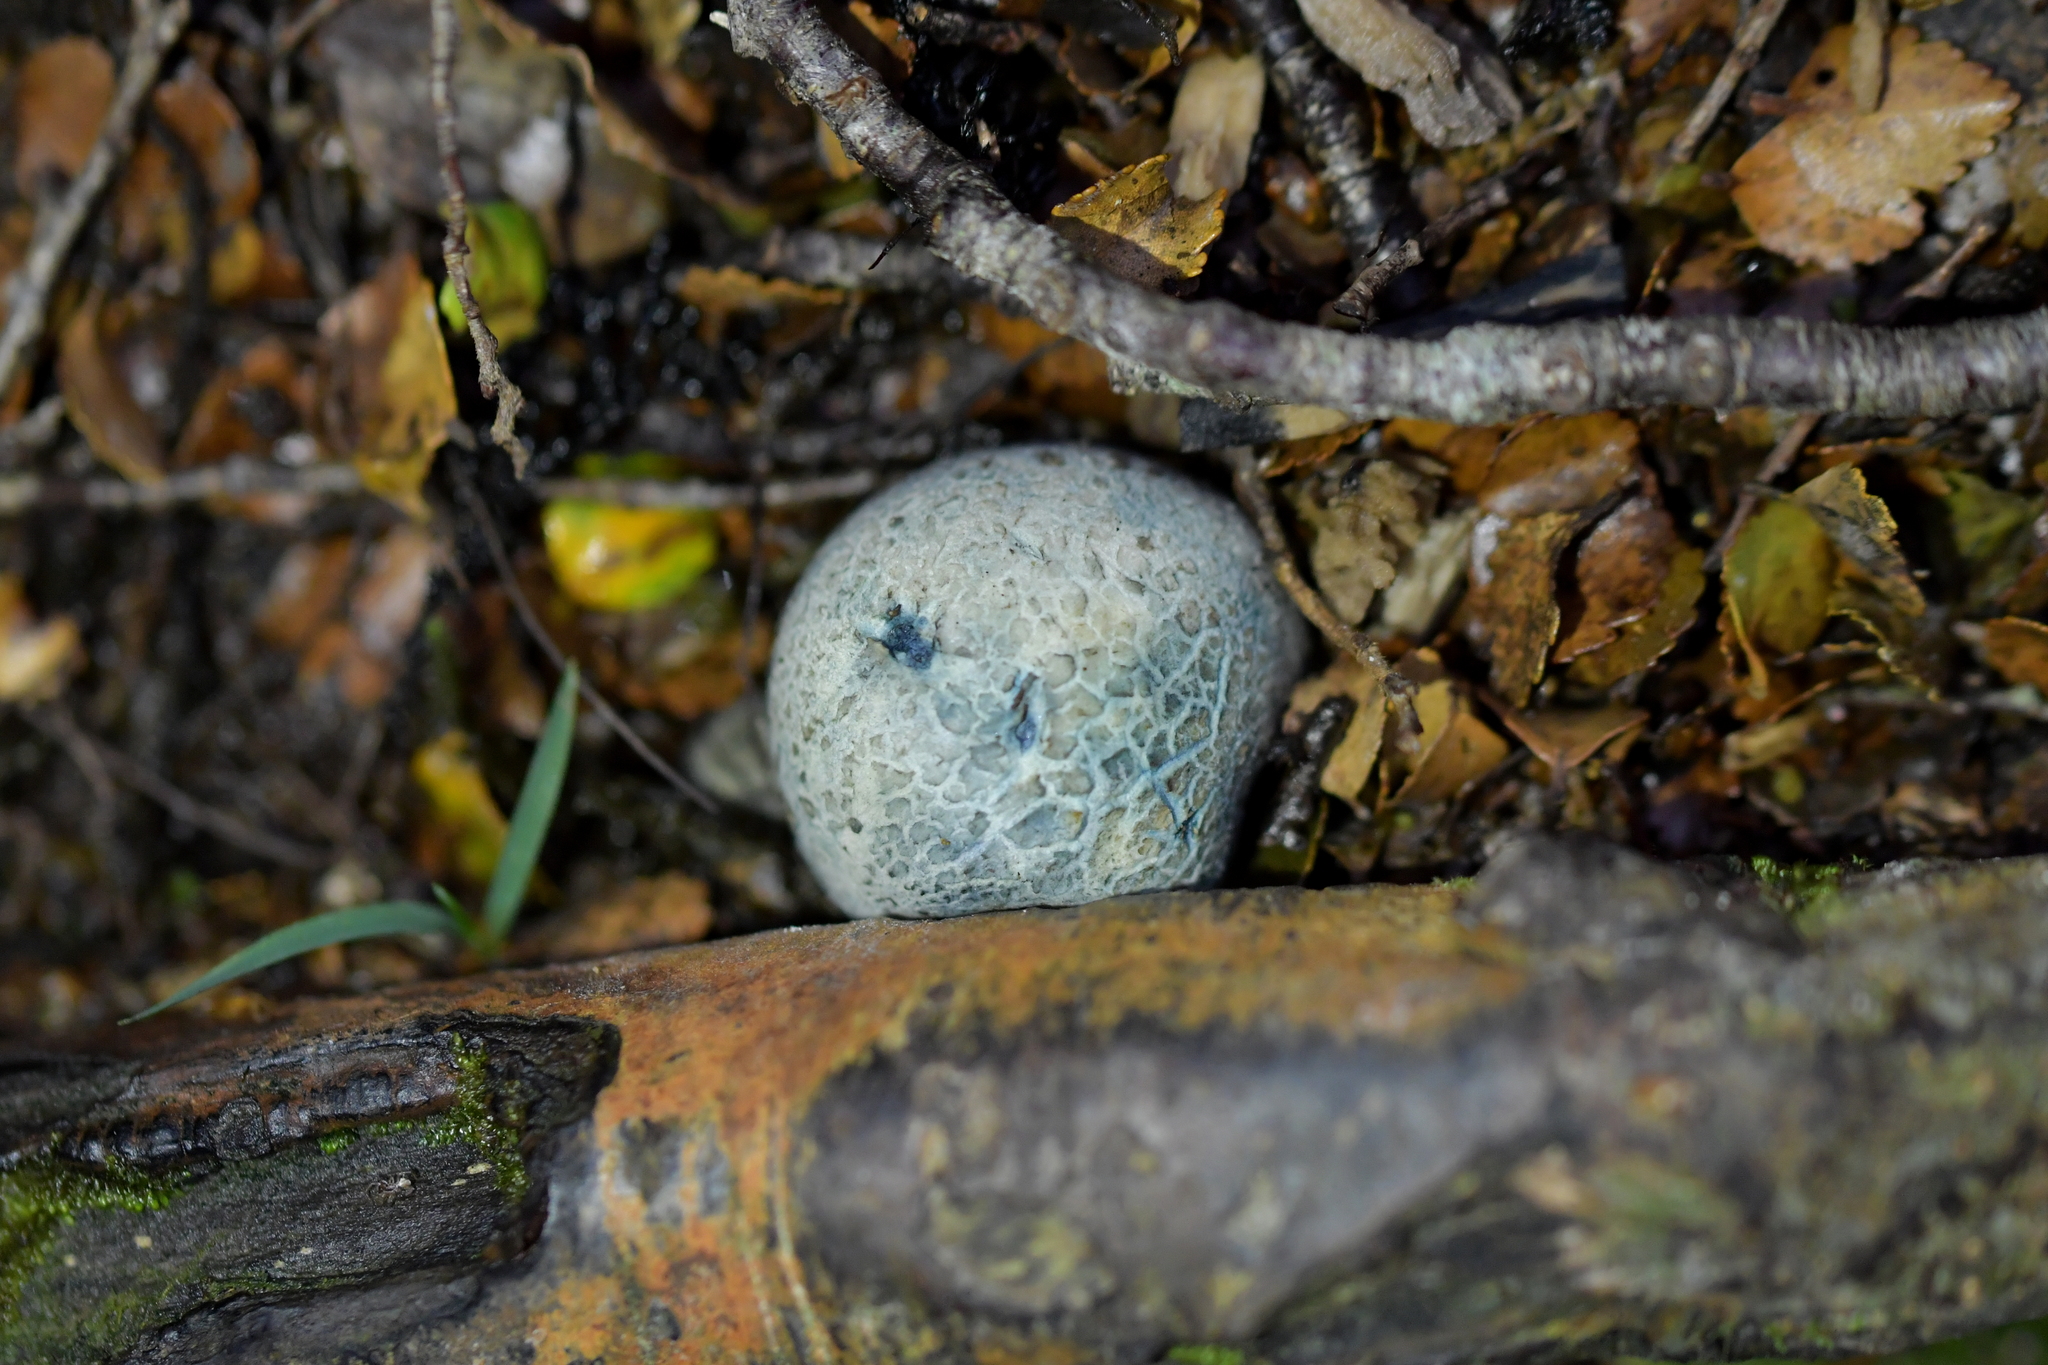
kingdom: Fungi
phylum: Basidiomycota
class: Agaricomycetes
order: Boletales
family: Boletaceae
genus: Leccinum
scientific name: Leccinum pachyderme
